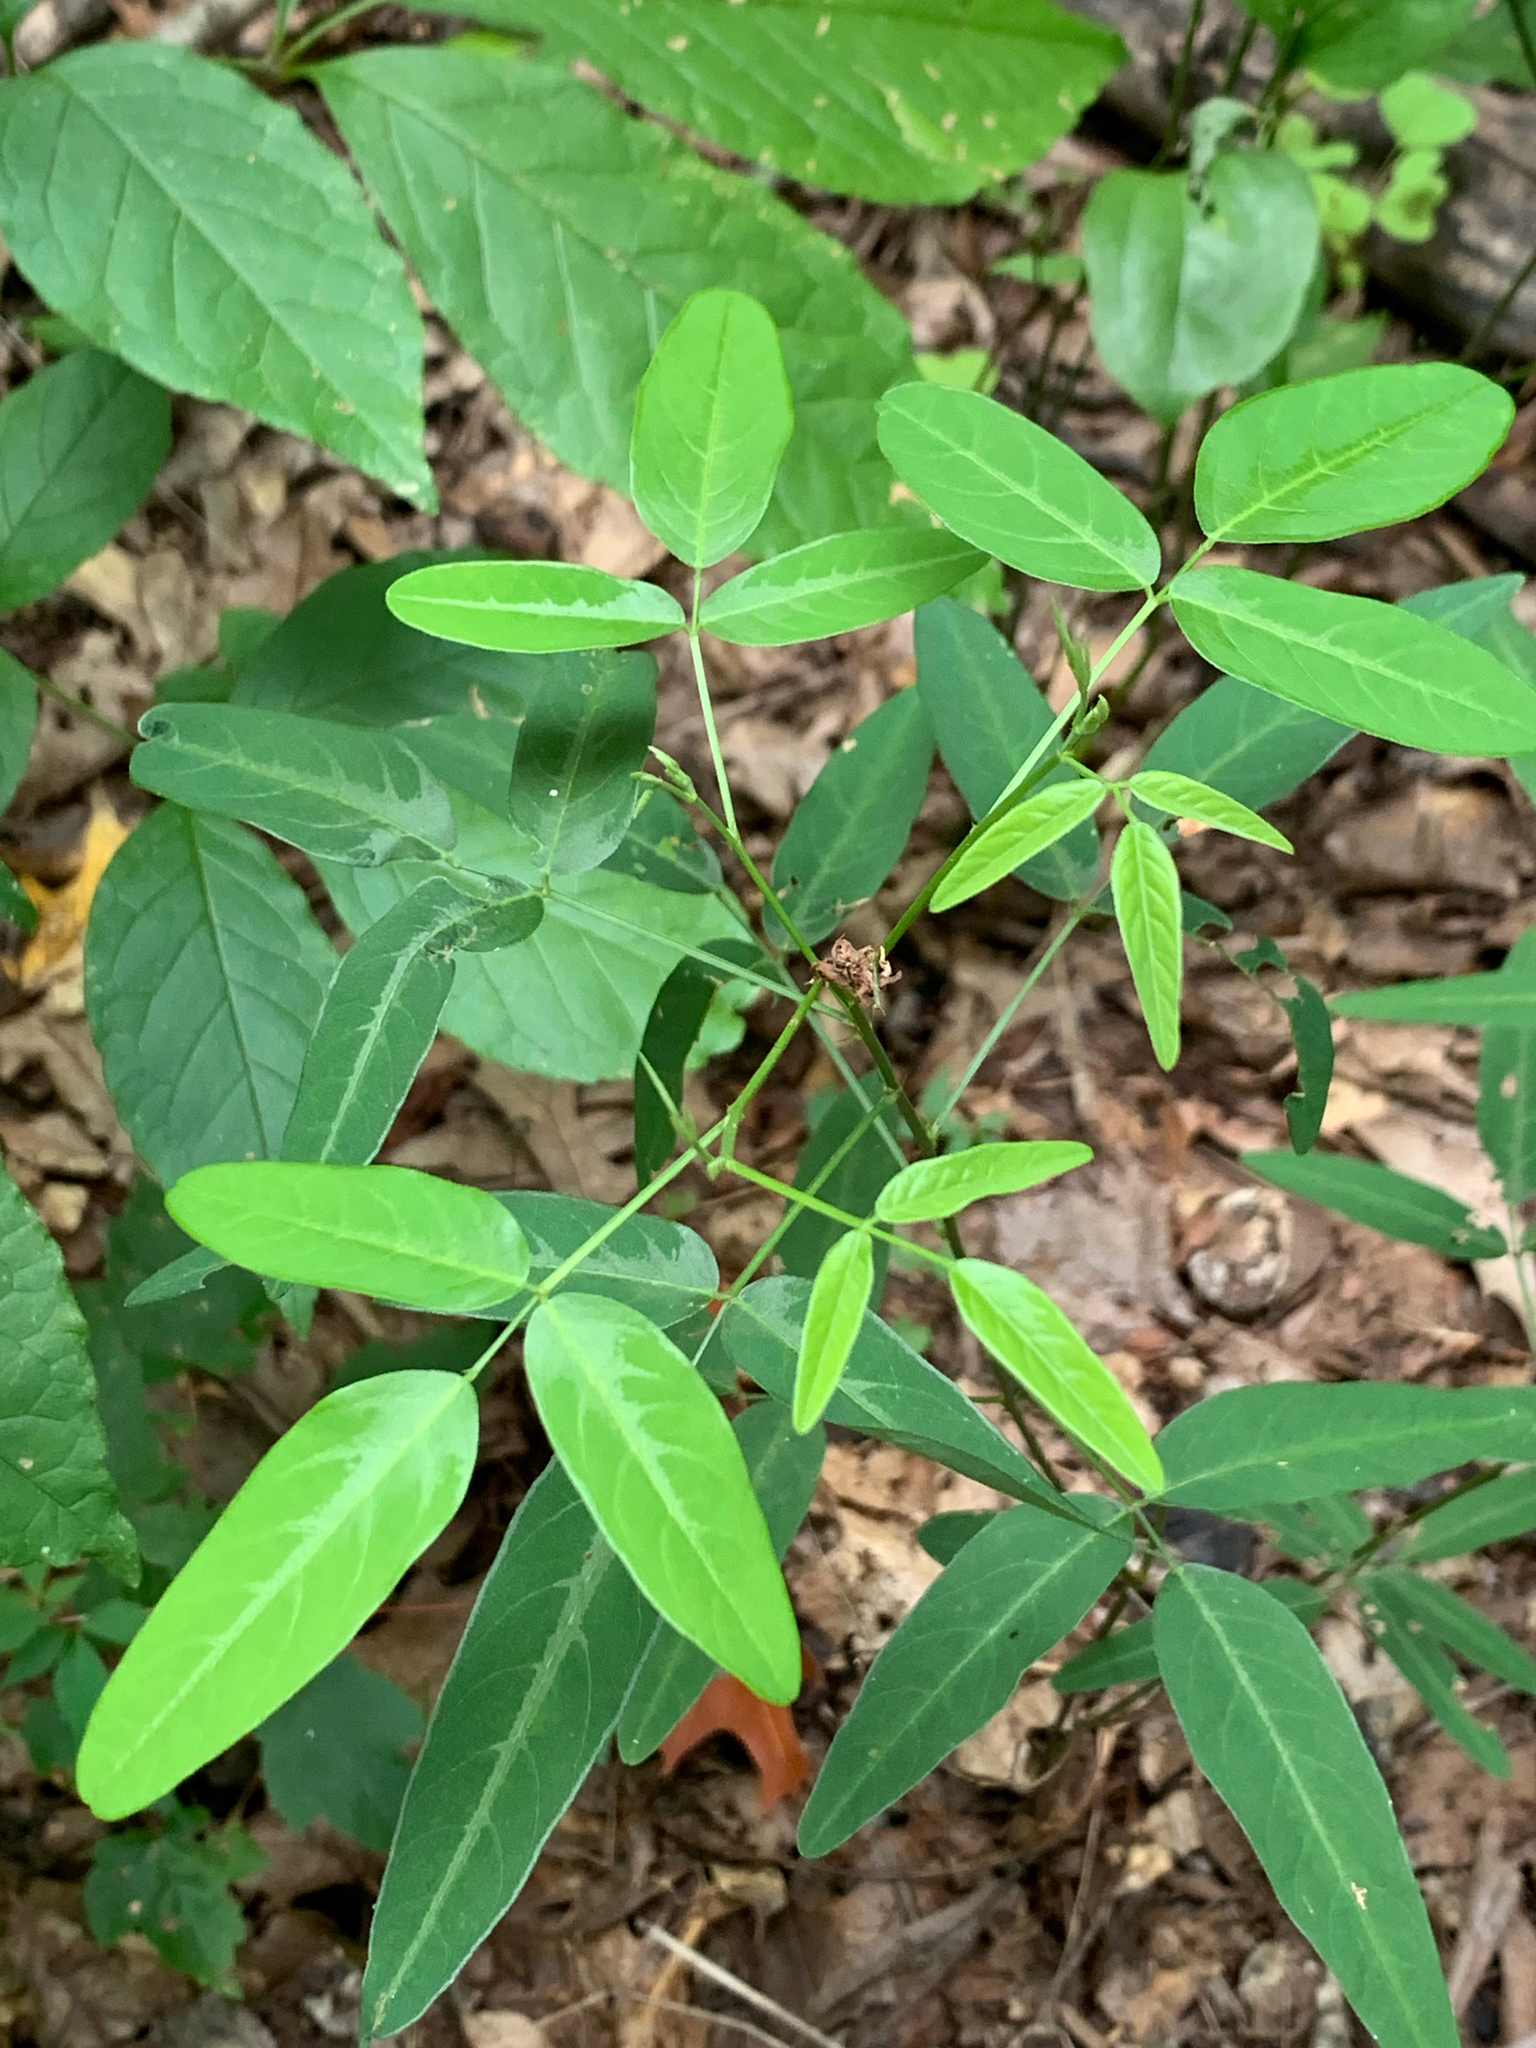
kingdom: Plantae
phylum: Tracheophyta
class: Magnoliopsida
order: Fabales
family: Fabaceae
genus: Desmodium
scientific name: Desmodium paniculatum
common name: Panicled tick-clover
